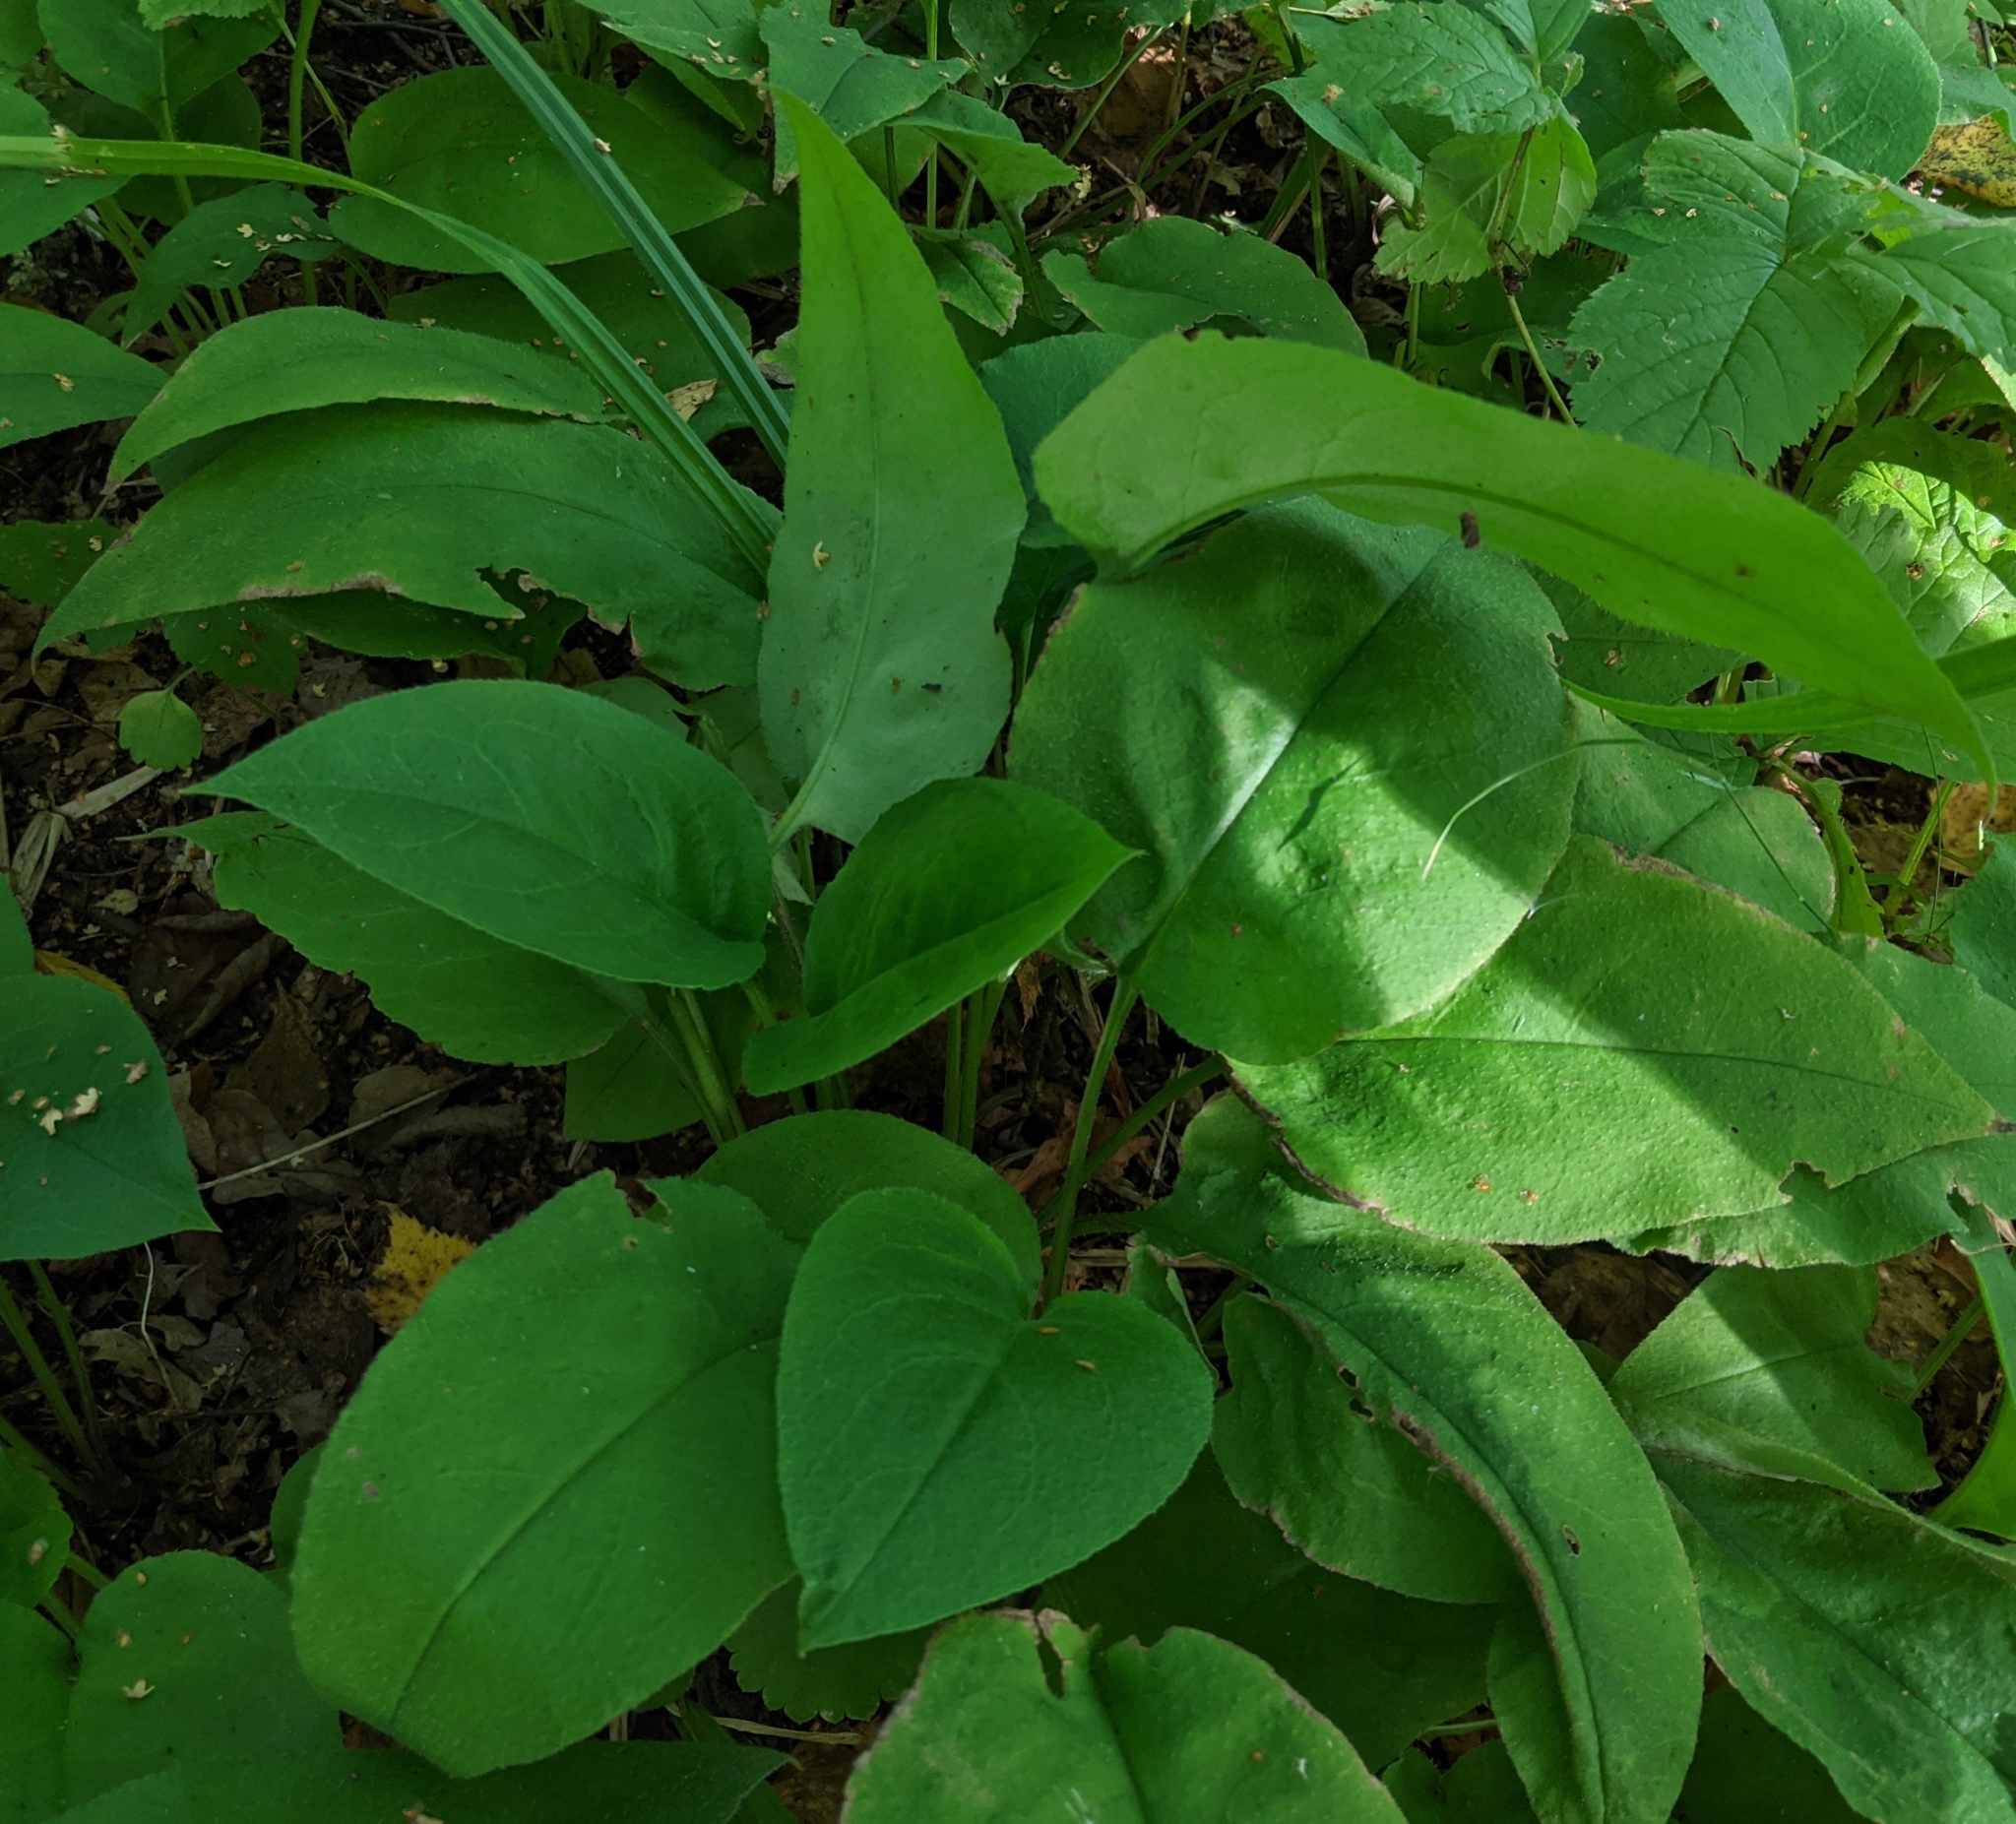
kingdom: Plantae
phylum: Tracheophyta
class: Magnoliopsida
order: Boraginales
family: Boraginaceae
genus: Pulmonaria
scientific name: Pulmonaria obscura
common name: Suffolk lungwort
